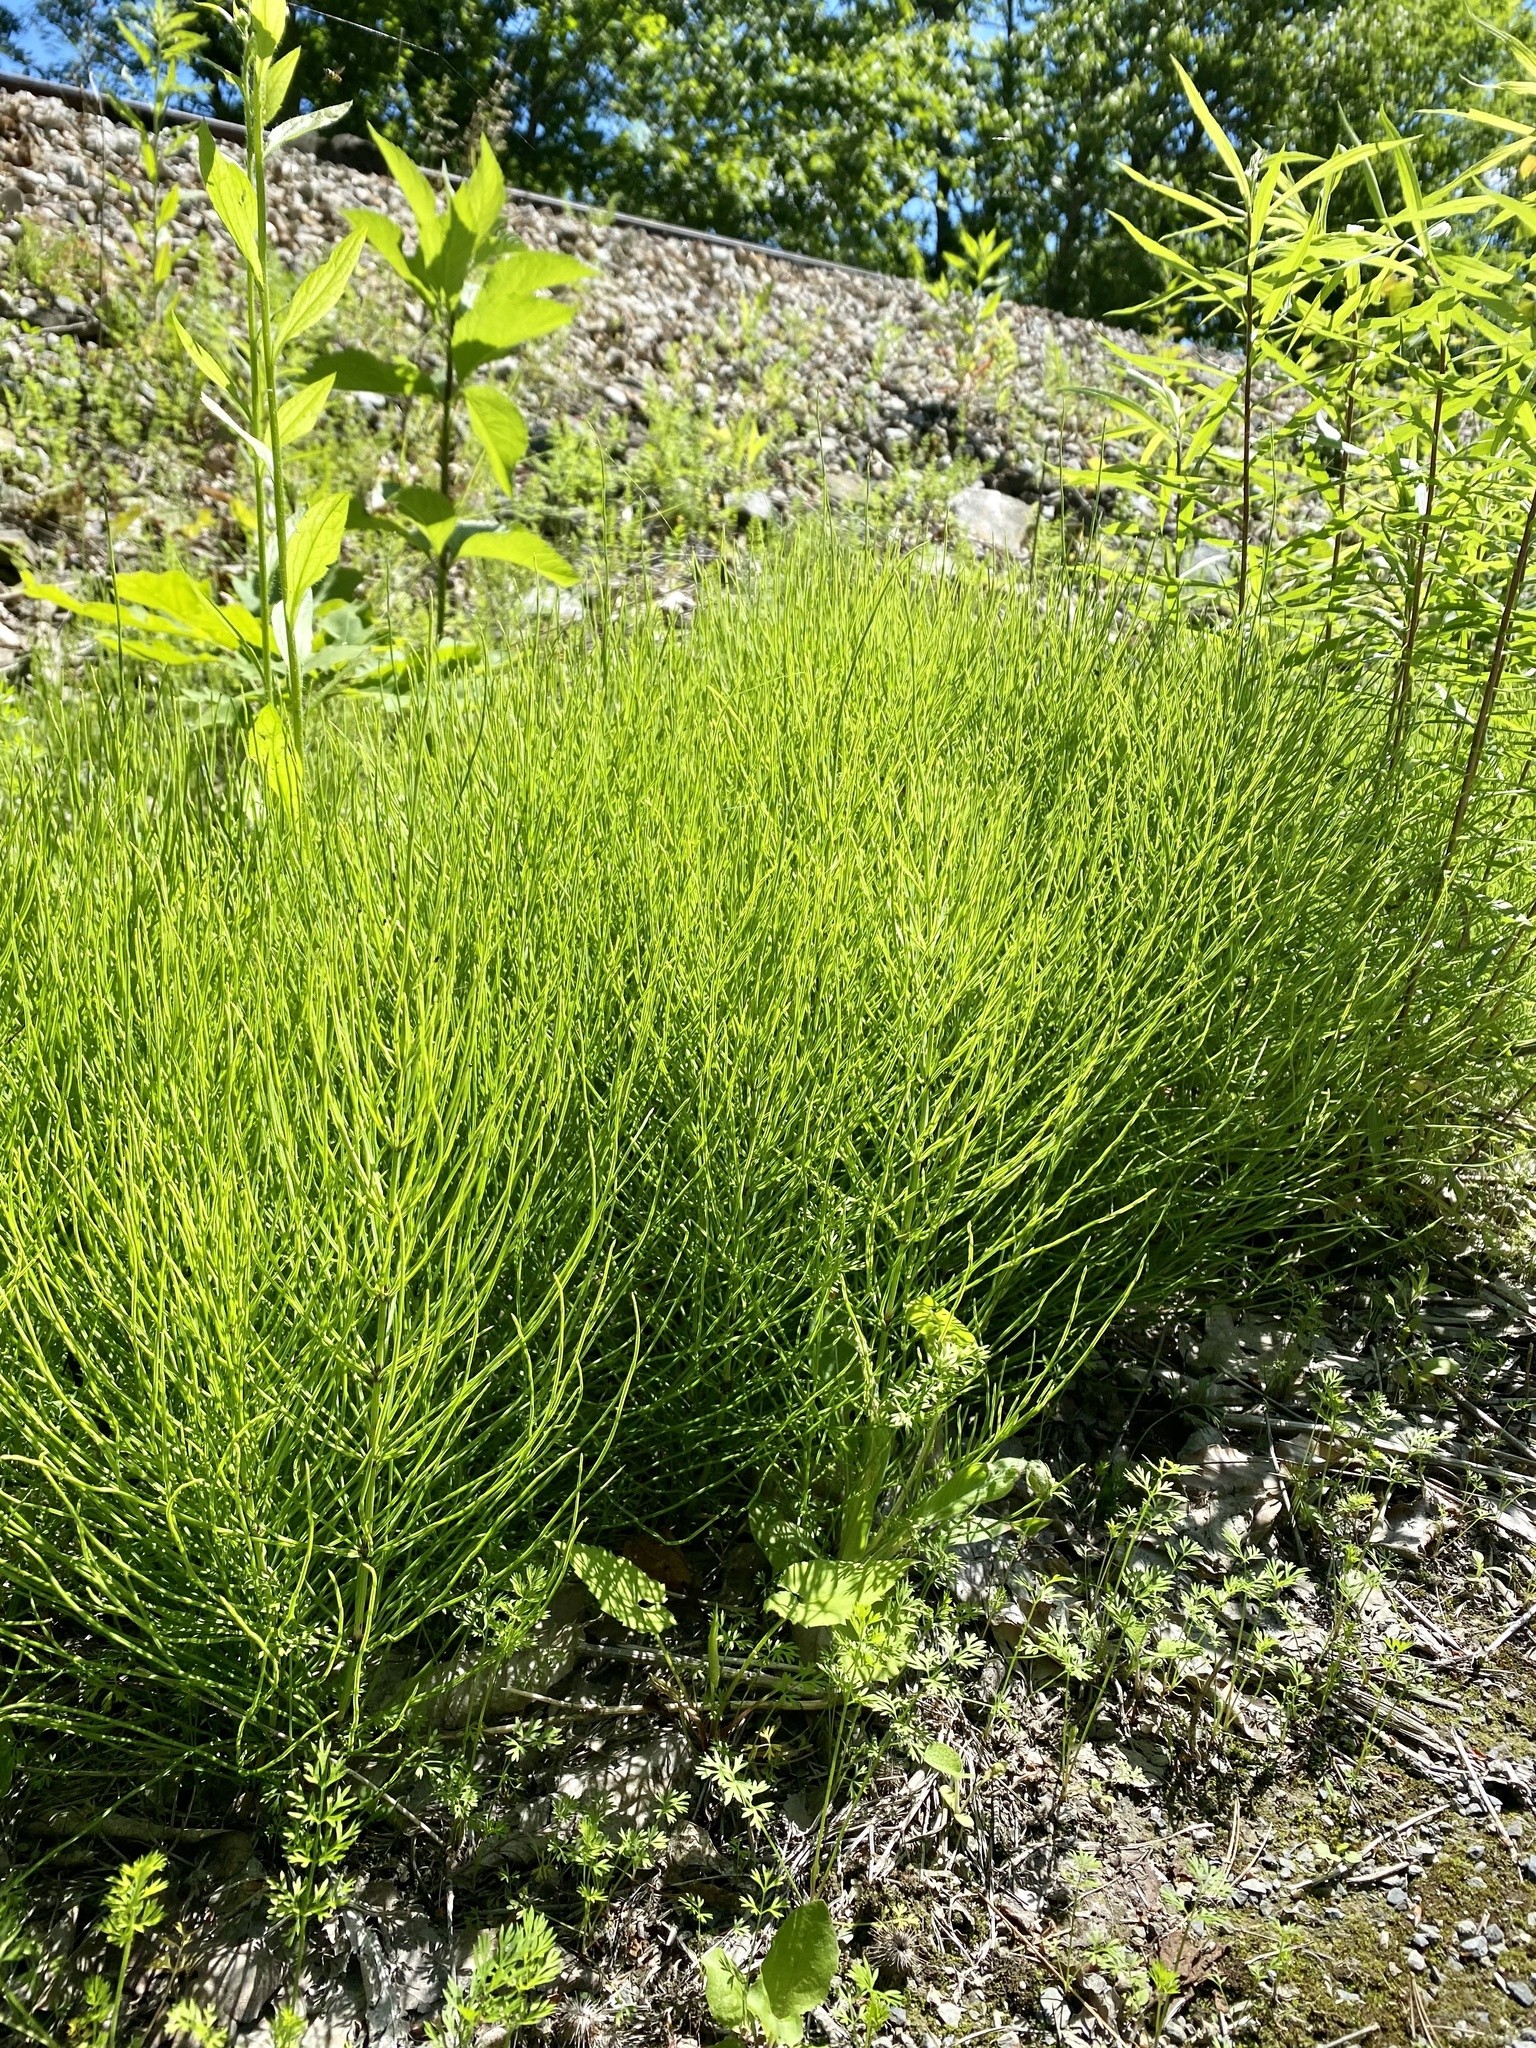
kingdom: Plantae
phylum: Tracheophyta
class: Polypodiopsida
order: Equisetales
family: Equisetaceae
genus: Equisetum
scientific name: Equisetum arvense
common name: Field horsetail
